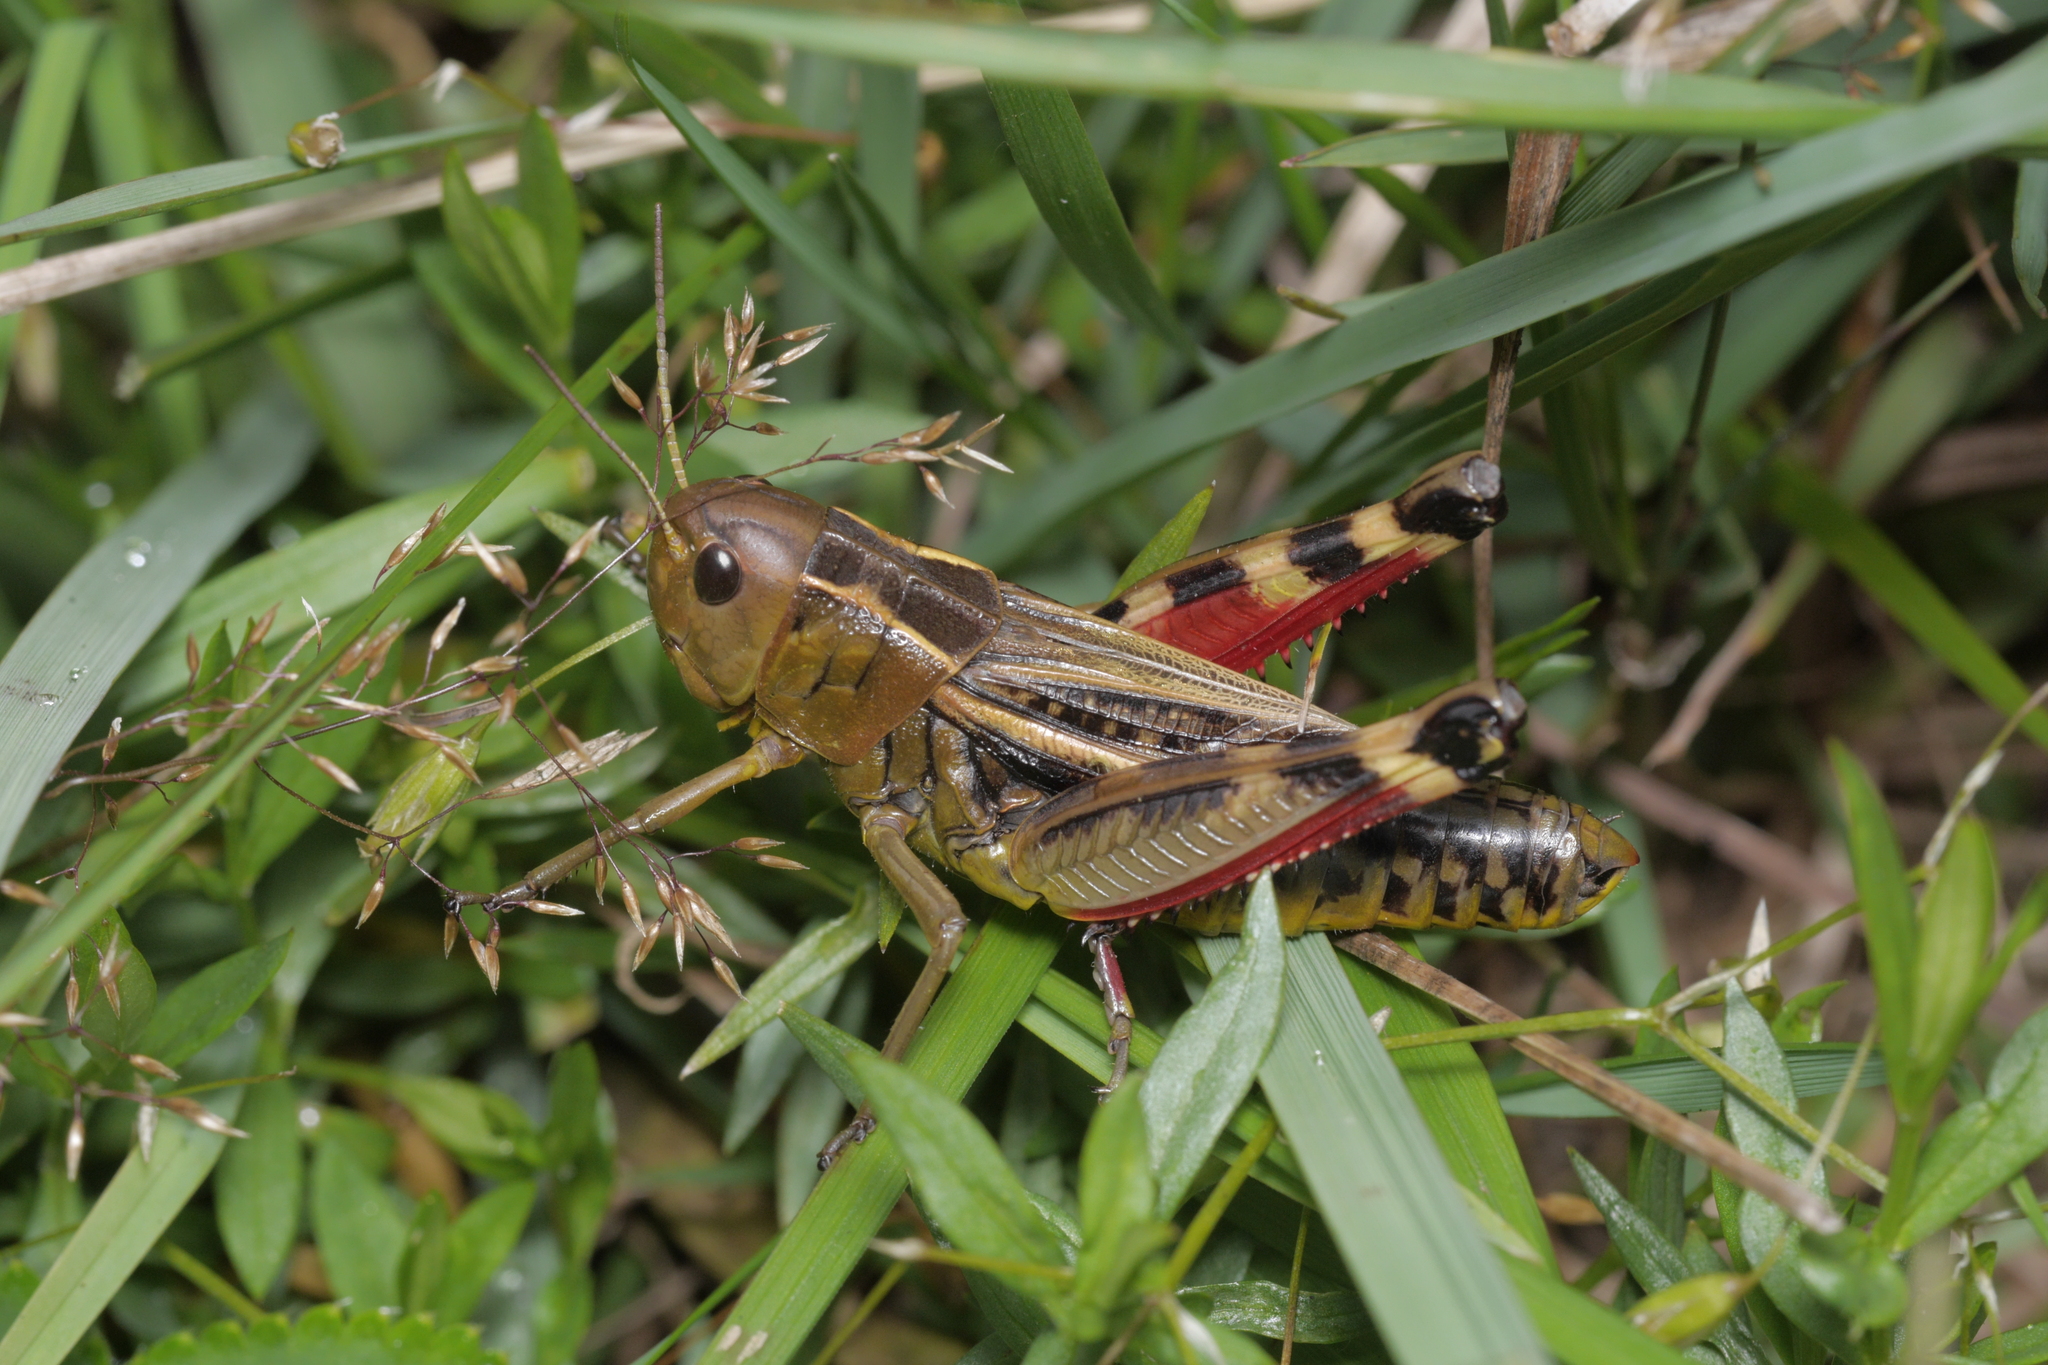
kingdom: Animalia
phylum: Arthropoda
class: Insecta
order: Orthoptera
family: Acrididae
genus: Arcyptera
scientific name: Arcyptera fusca
